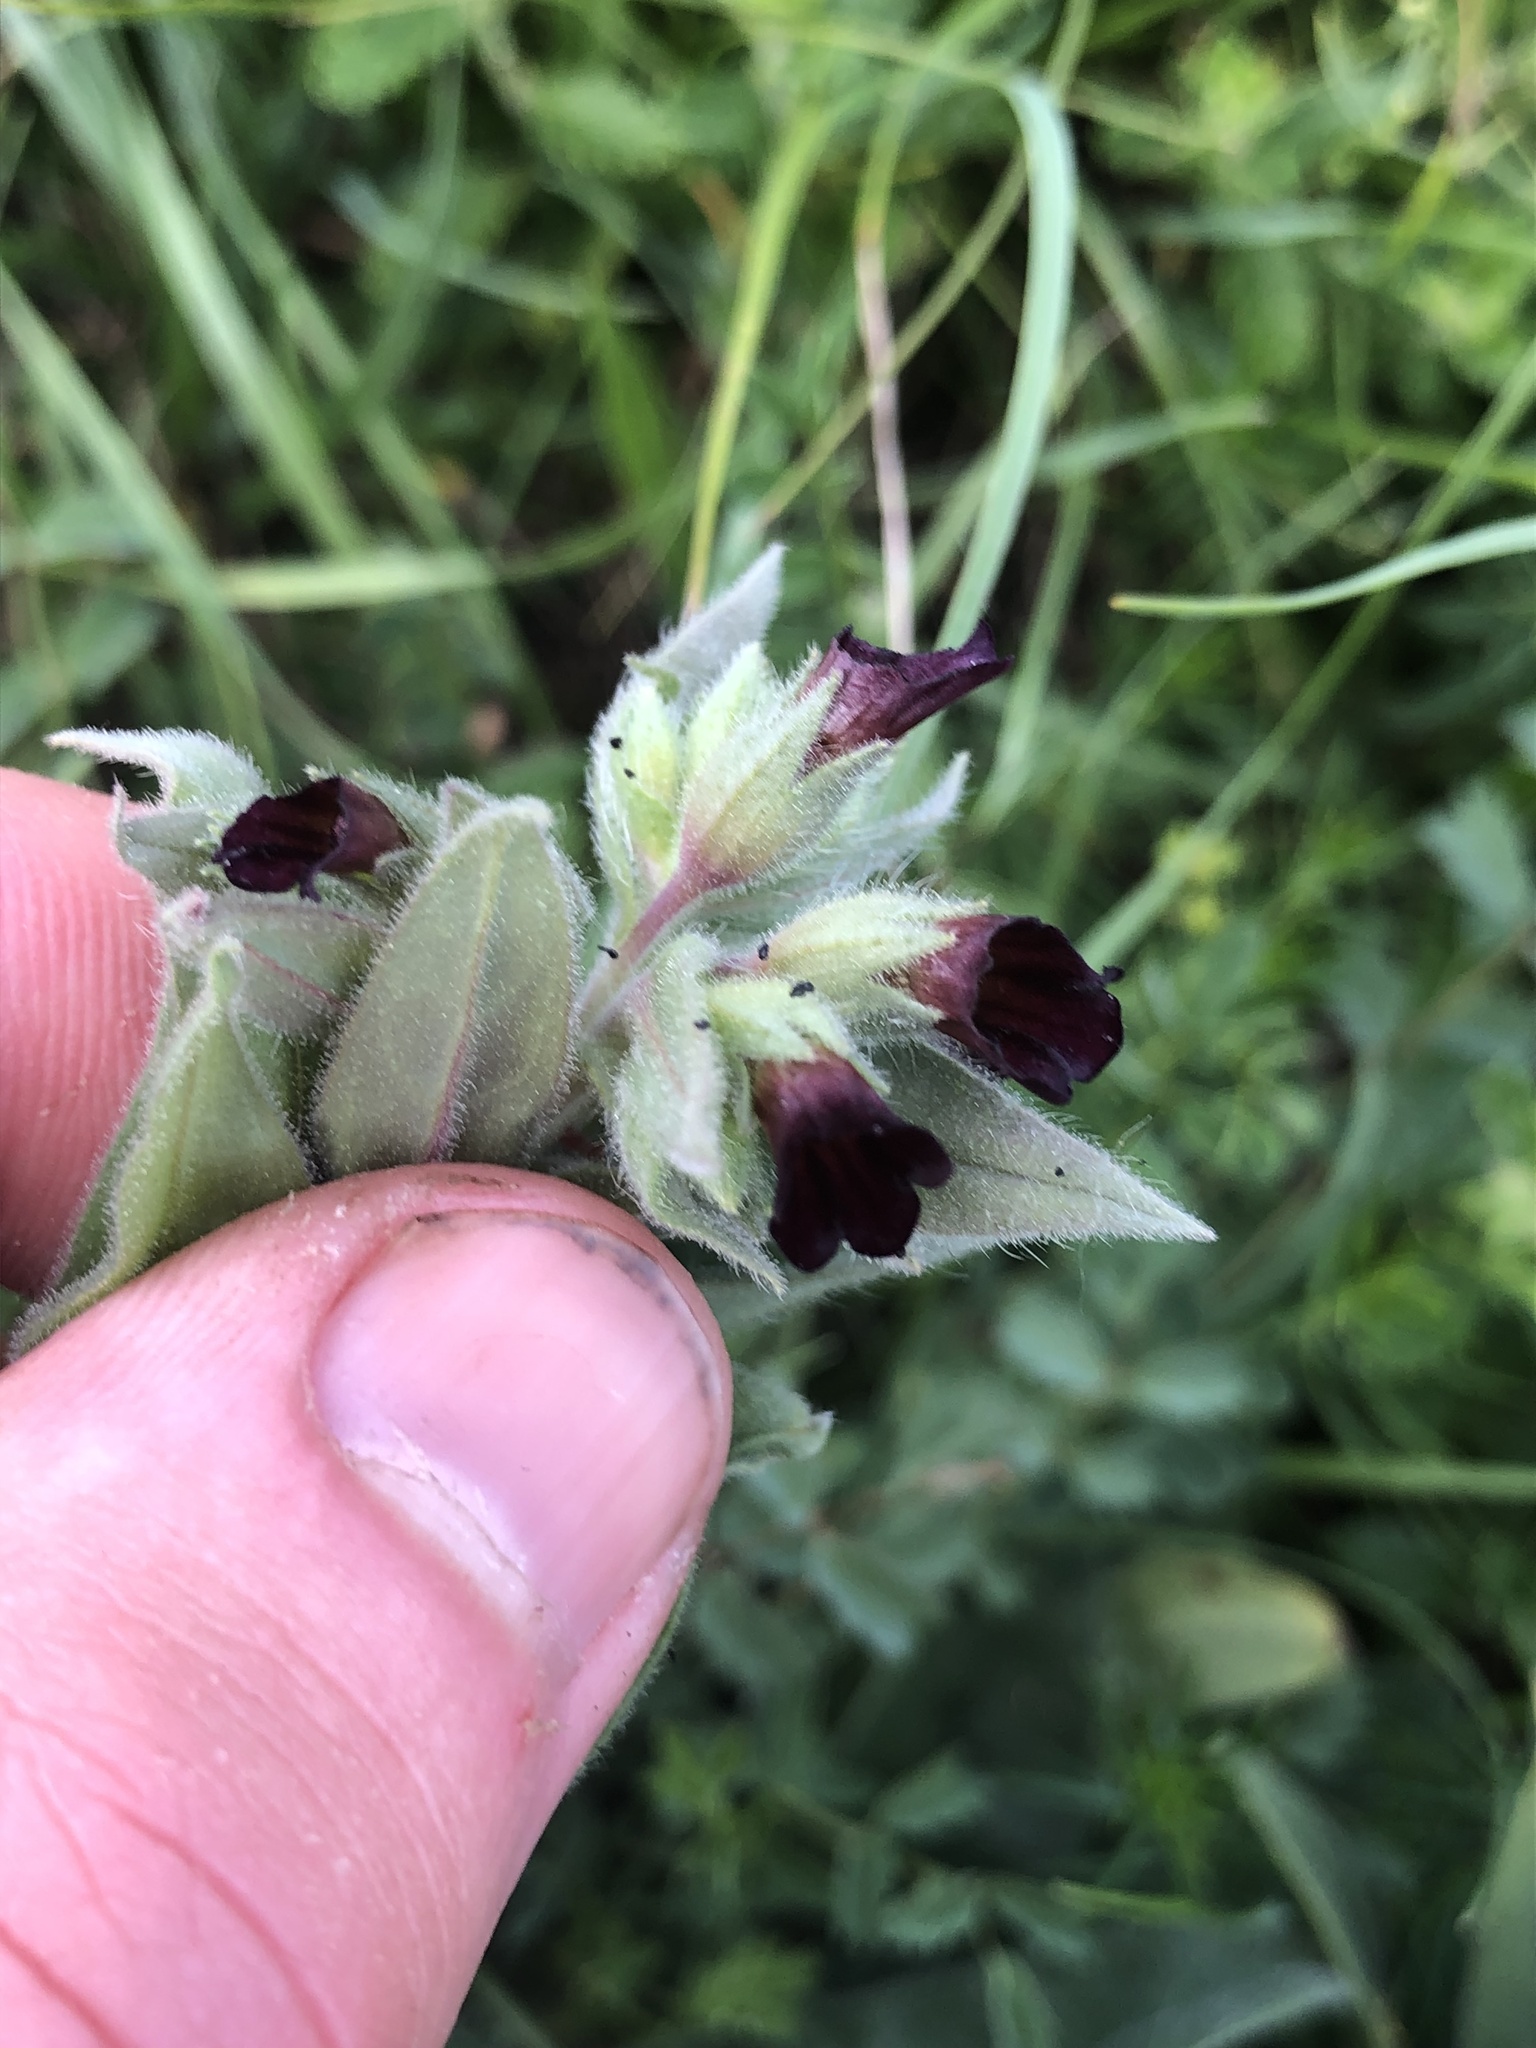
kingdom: Plantae
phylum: Tracheophyta
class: Magnoliopsida
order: Boraginales
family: Boraginaceae
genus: Nonea
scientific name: Nonea pulla
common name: Brown nonea
